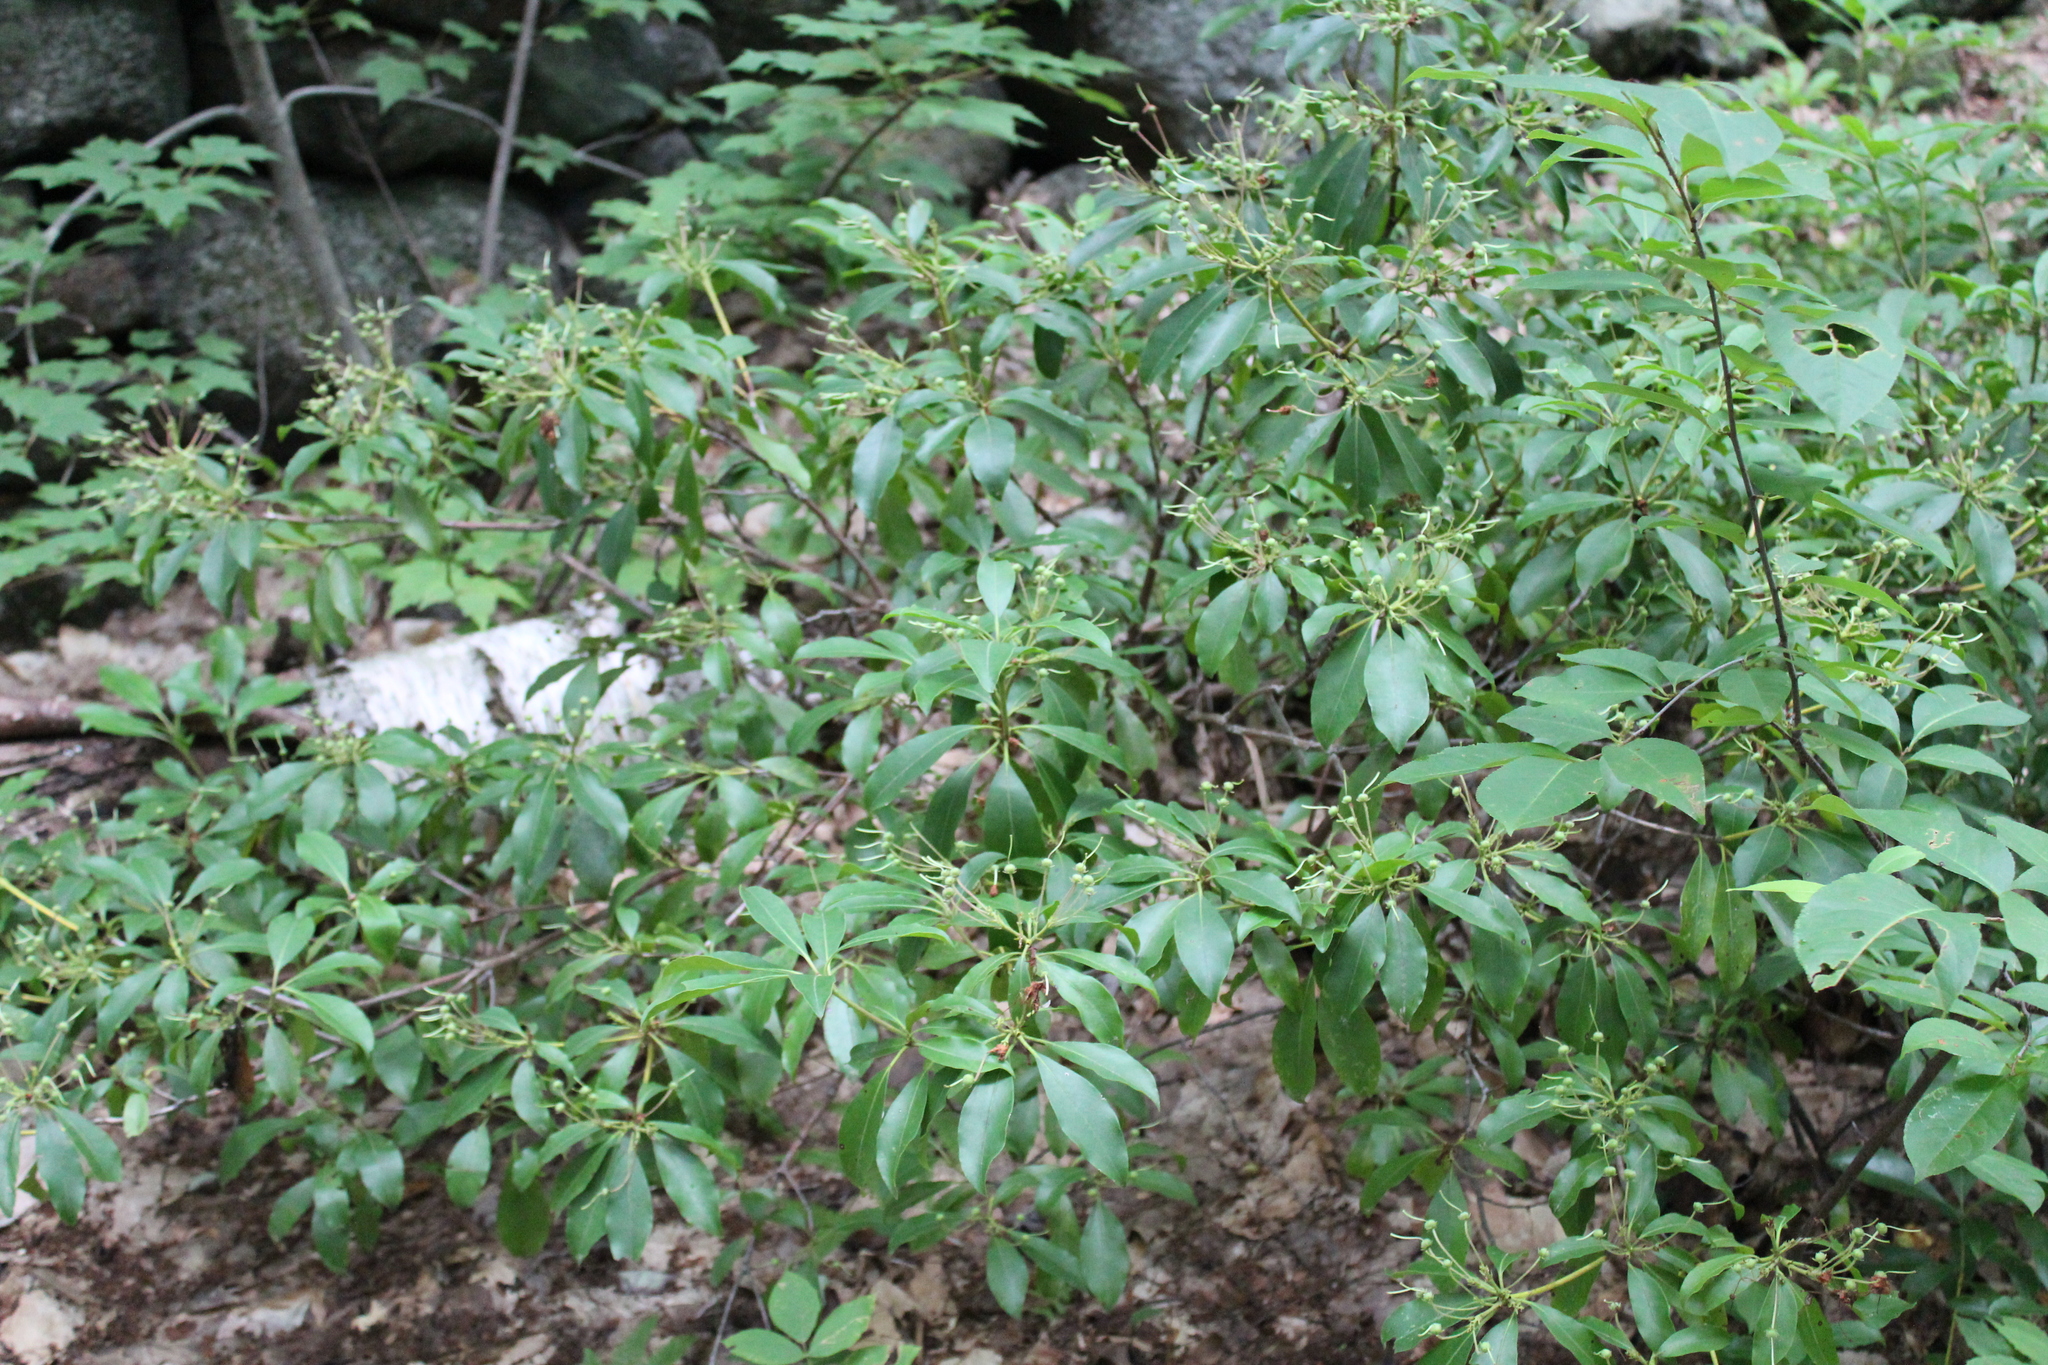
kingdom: Plantae
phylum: Tracheophyta
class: Magnoliopsida
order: Ericales
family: Ericaceae
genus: Kalmia
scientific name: Kalmia latifolia
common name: Mountain-laurel
